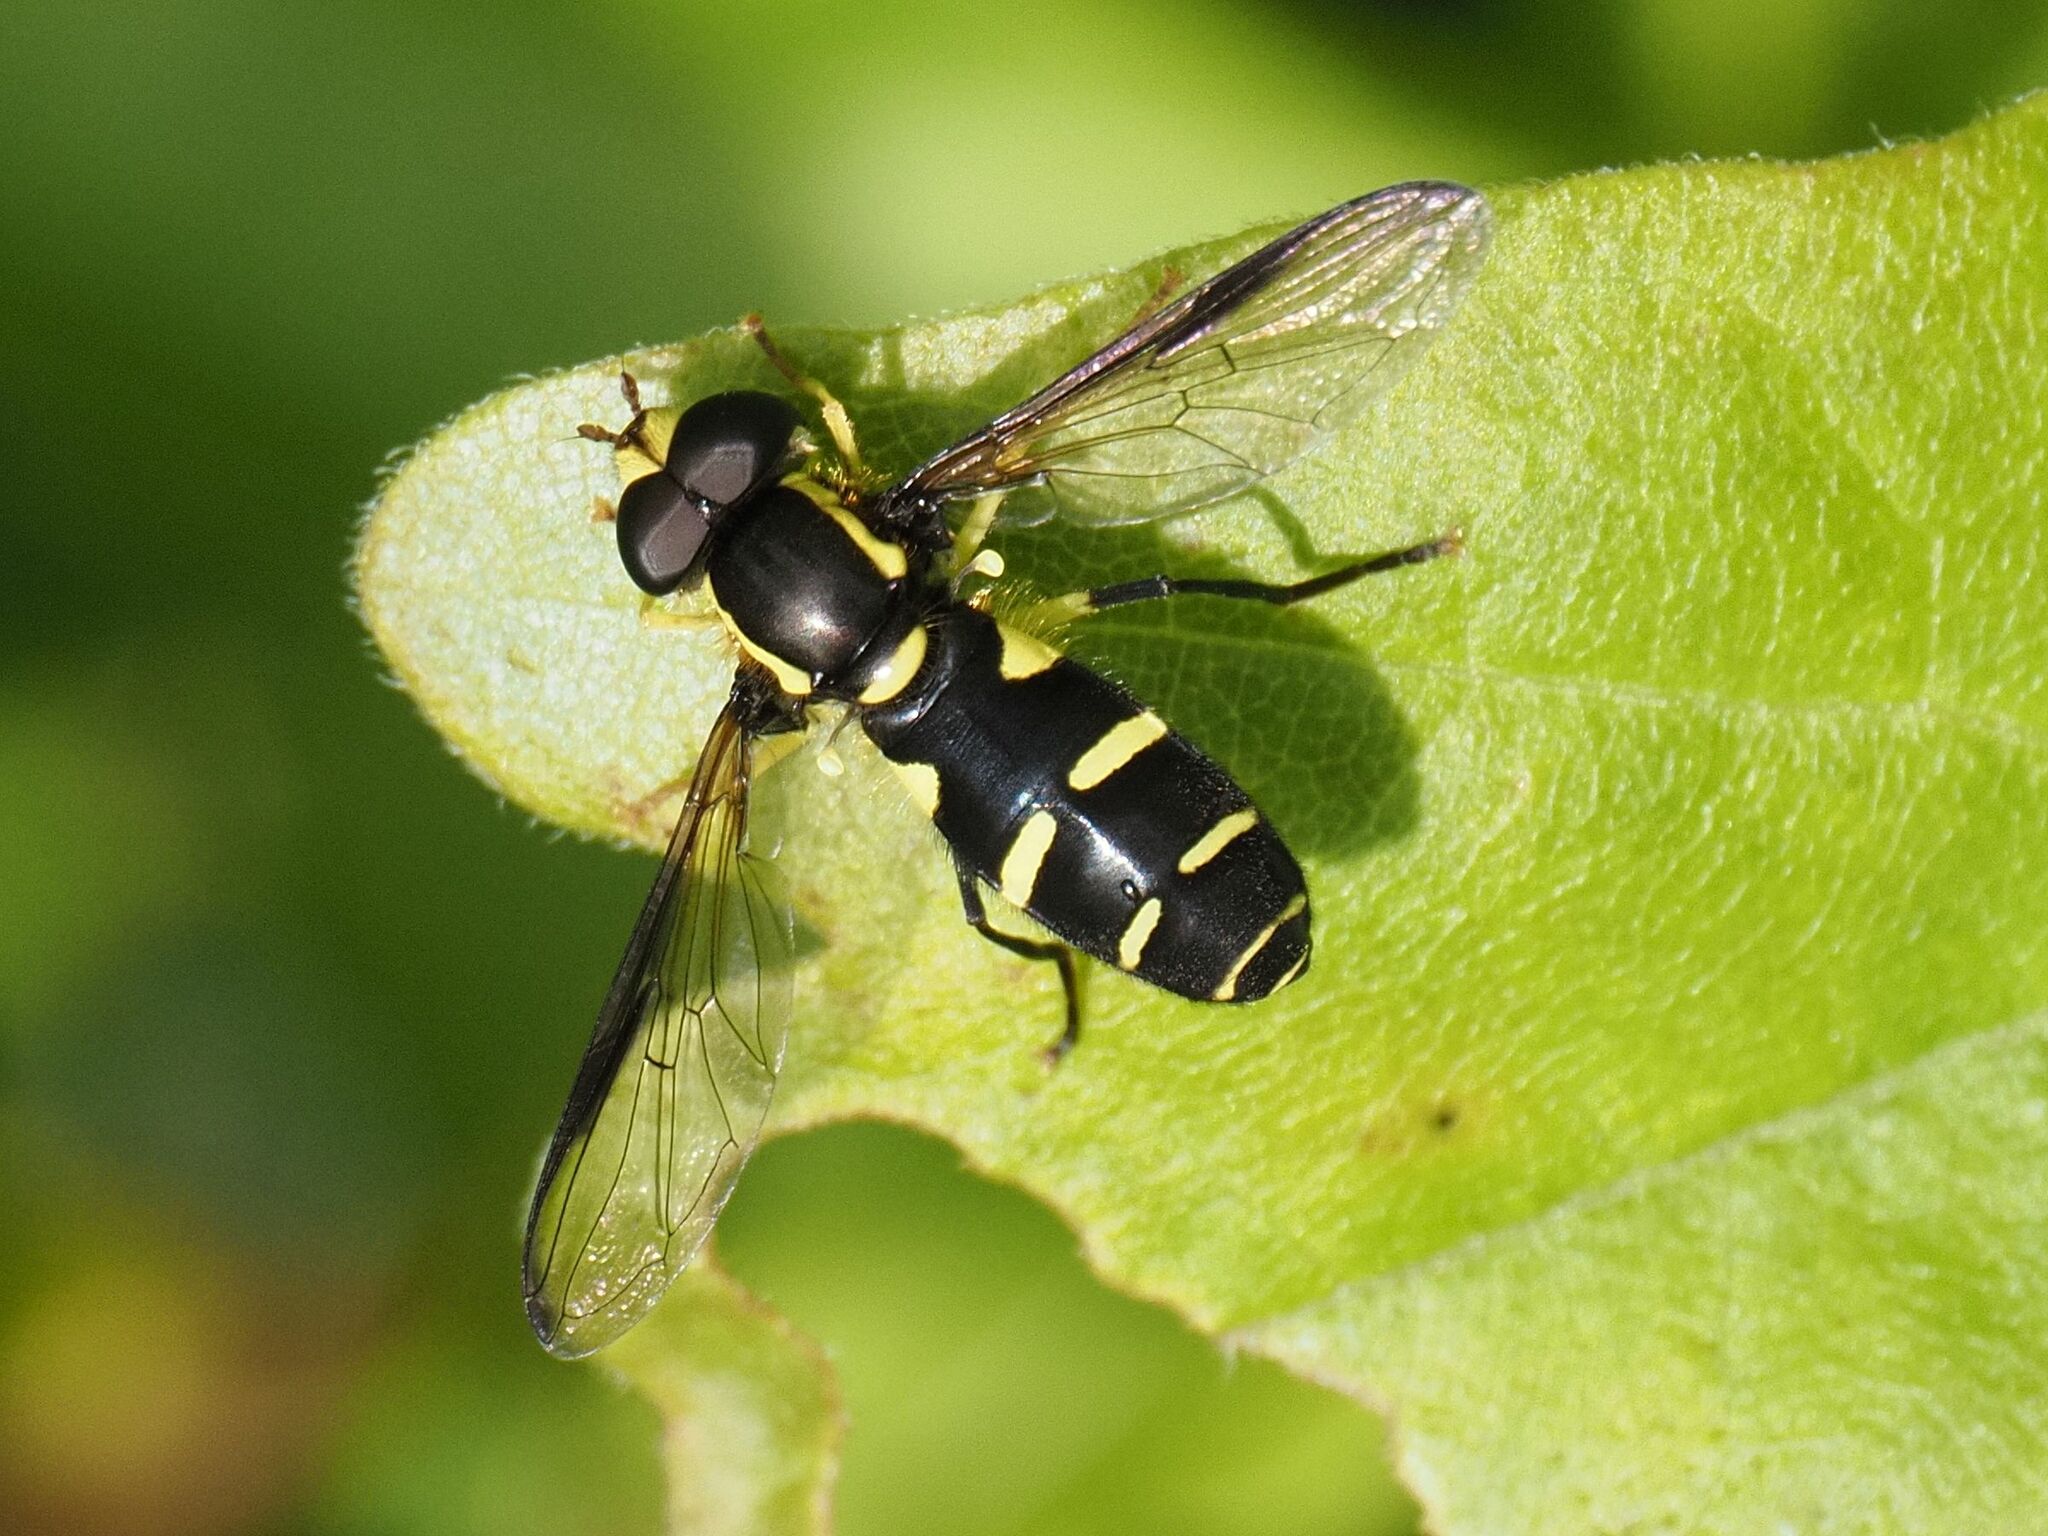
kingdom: Animalia
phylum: Arthropoda
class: Insecta
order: Diptera
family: Syrphidae
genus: Philhelius
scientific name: Philhelius dives
